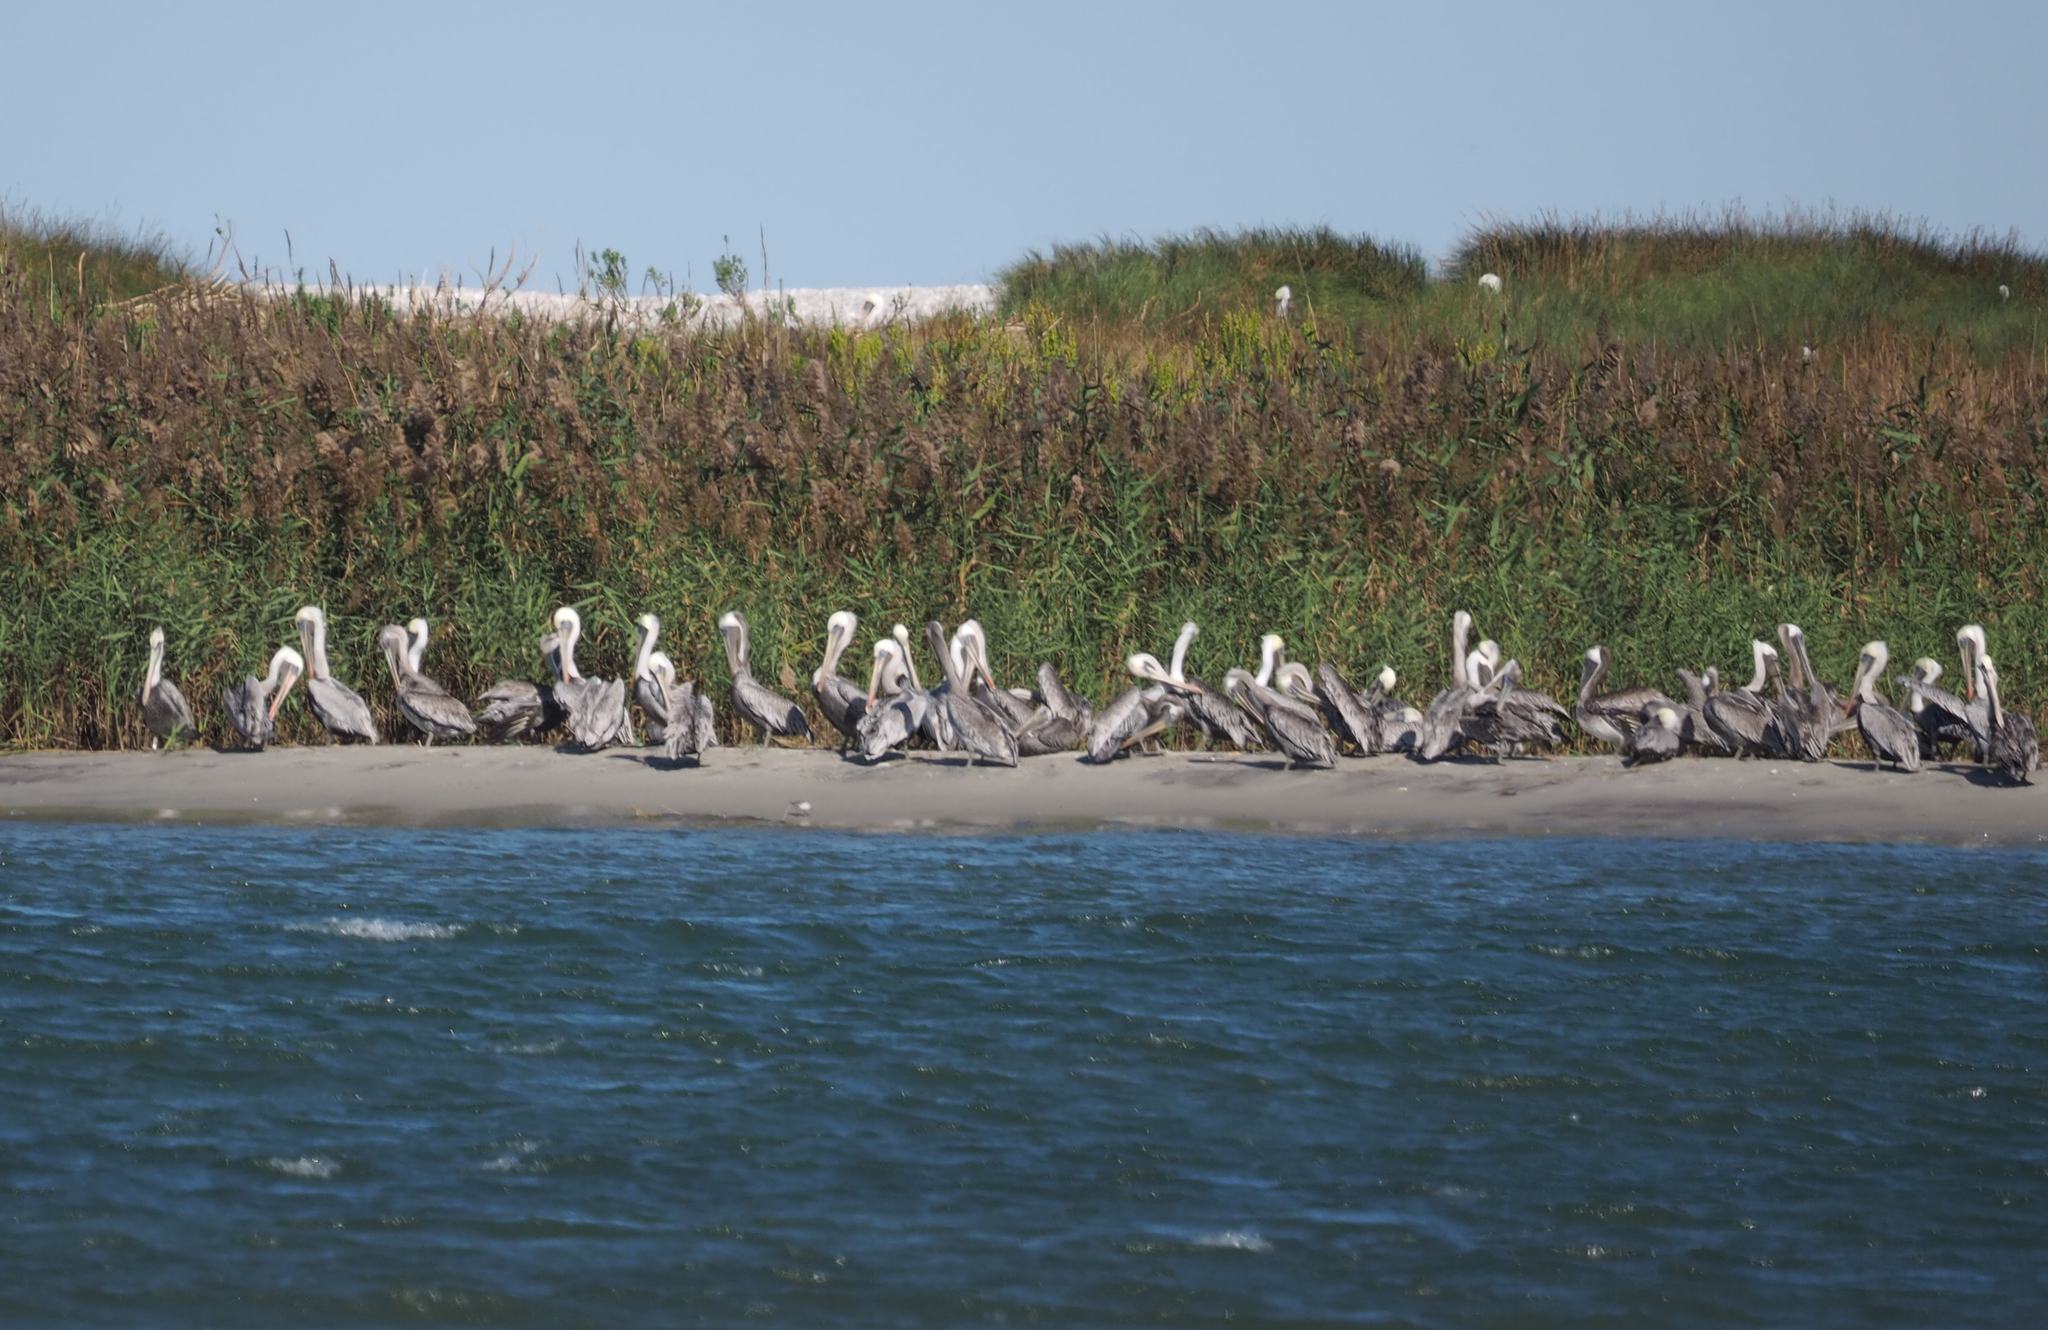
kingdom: Animalia
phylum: Chordata
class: Aves
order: Pelecaniformes
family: Pelecanidae
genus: Pelecanus
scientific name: Pelecanus occidentalis
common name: Brown pelican
